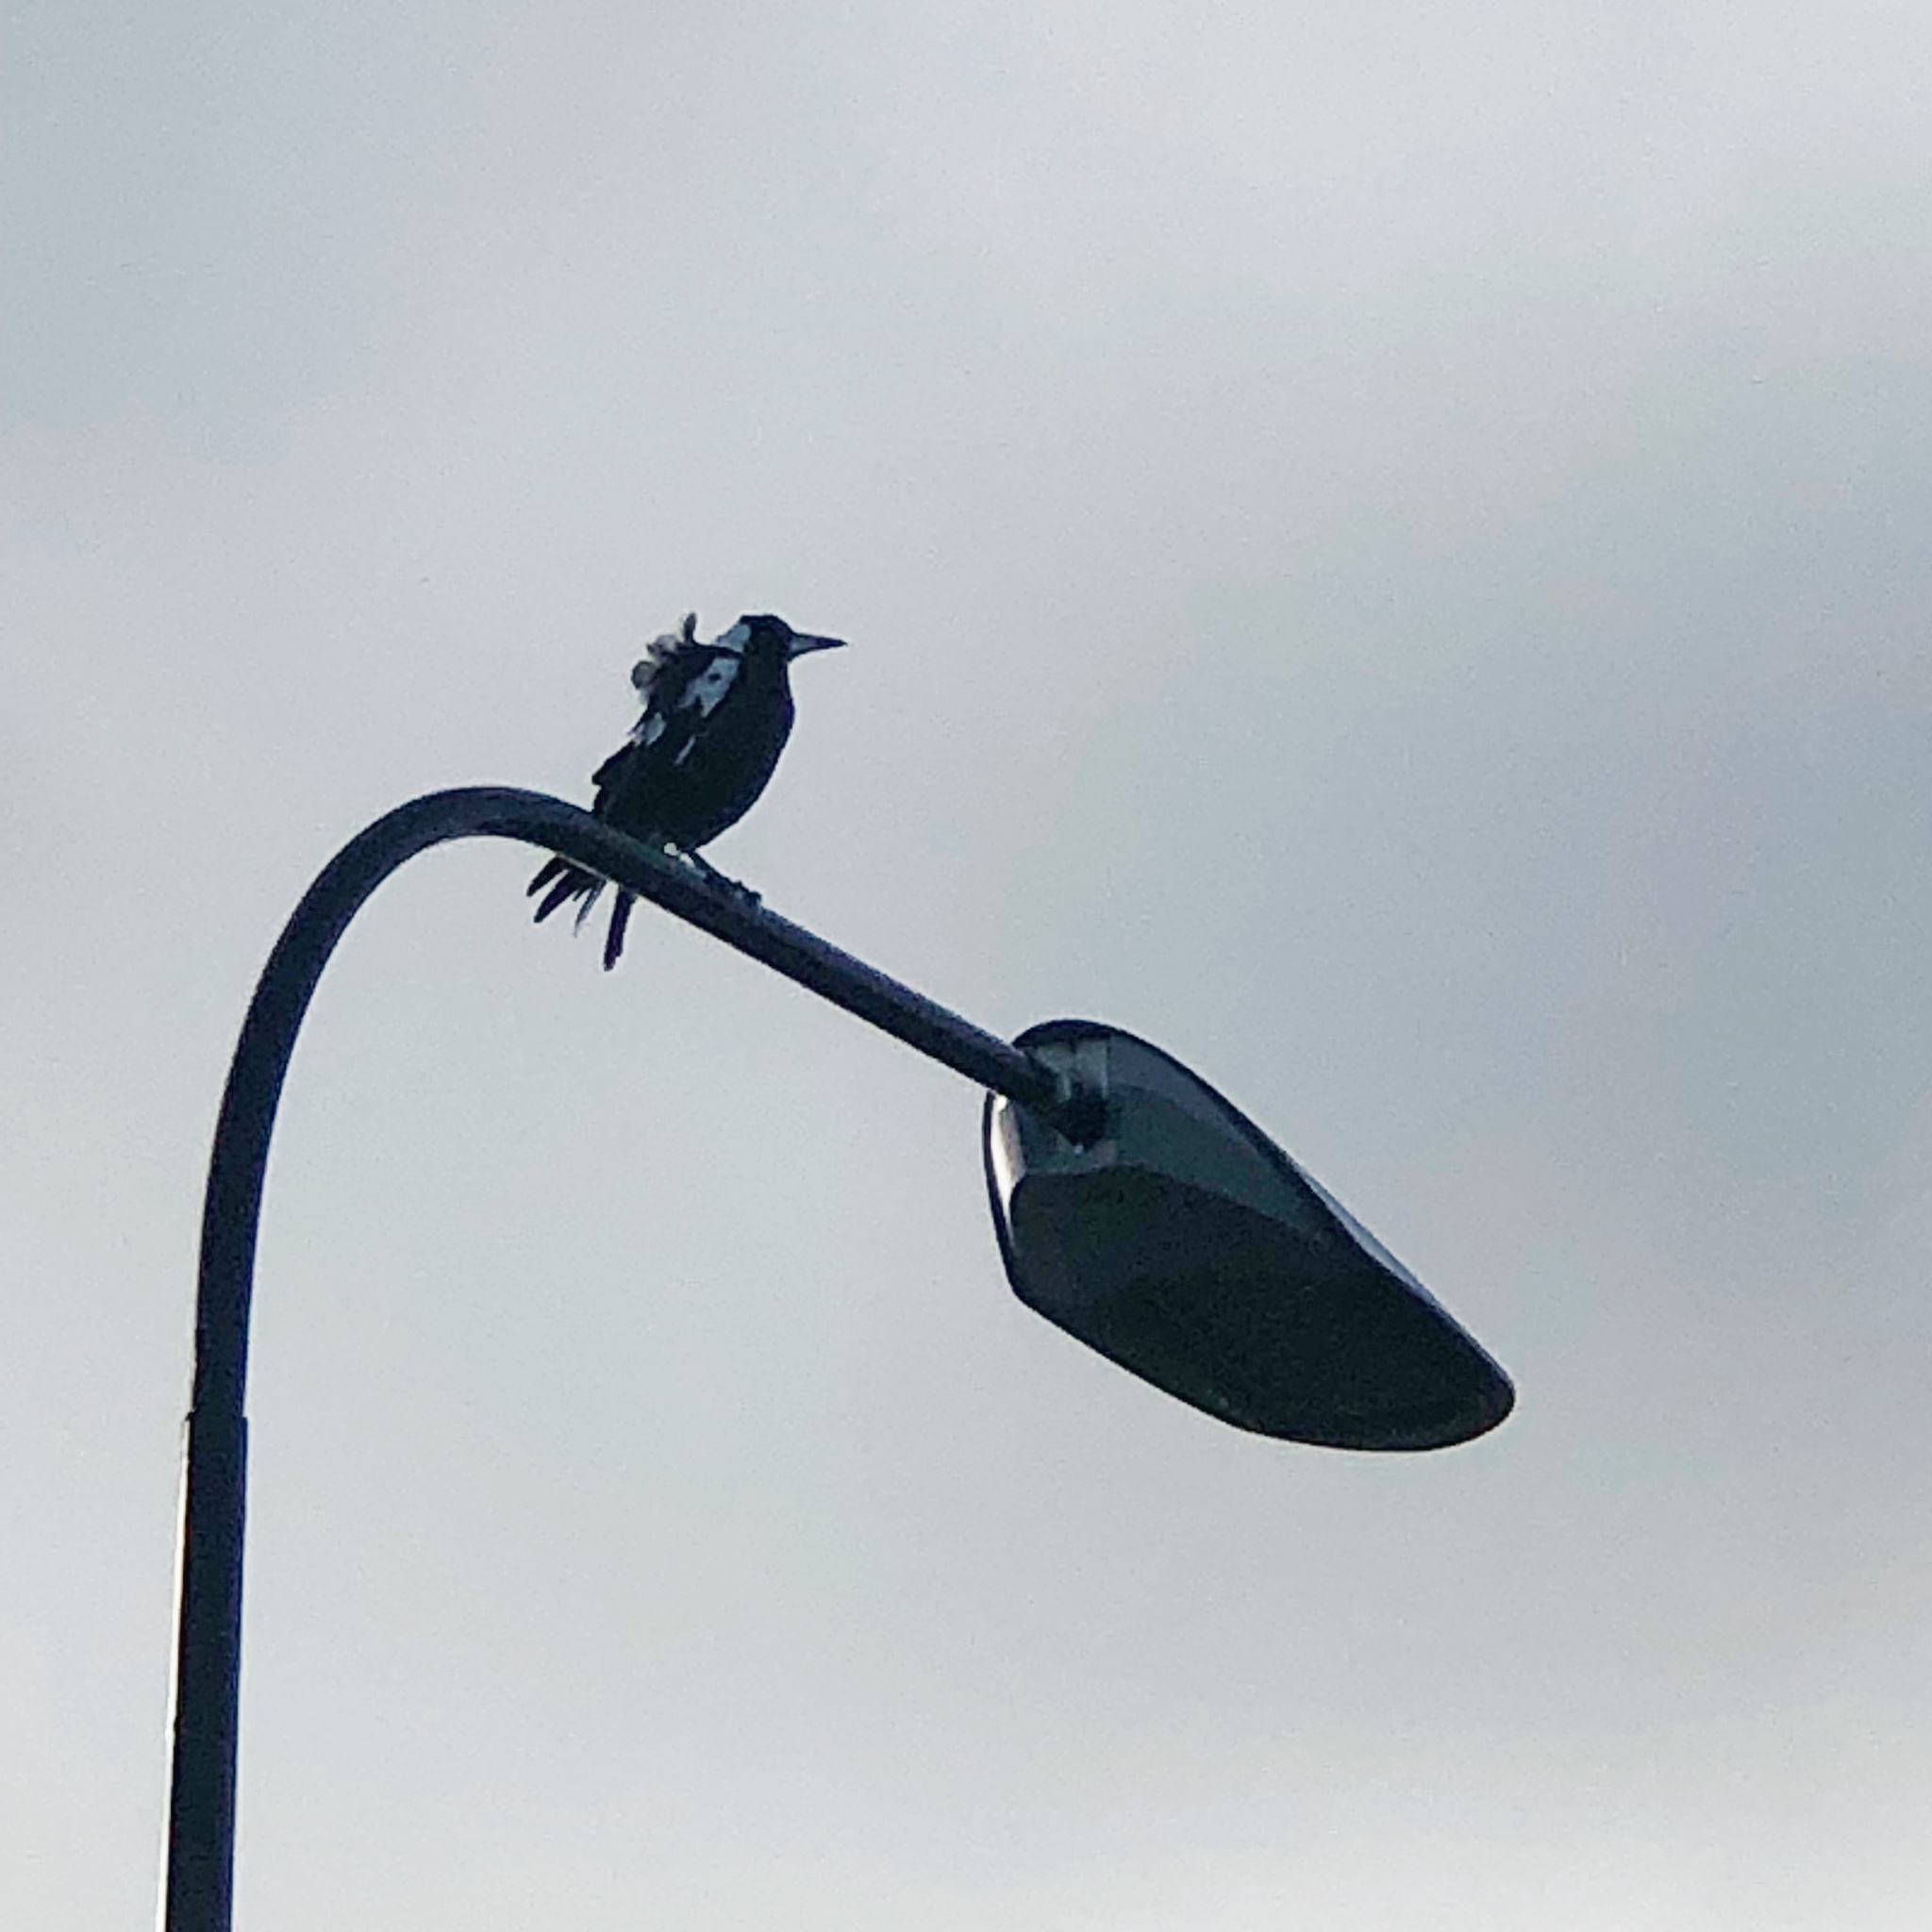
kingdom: Animalia
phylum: Chordata
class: Aves
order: Passeriformes
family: Cracticidae
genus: Gymnorhina
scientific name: Gymnorhina tibicen
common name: Australian magpie
